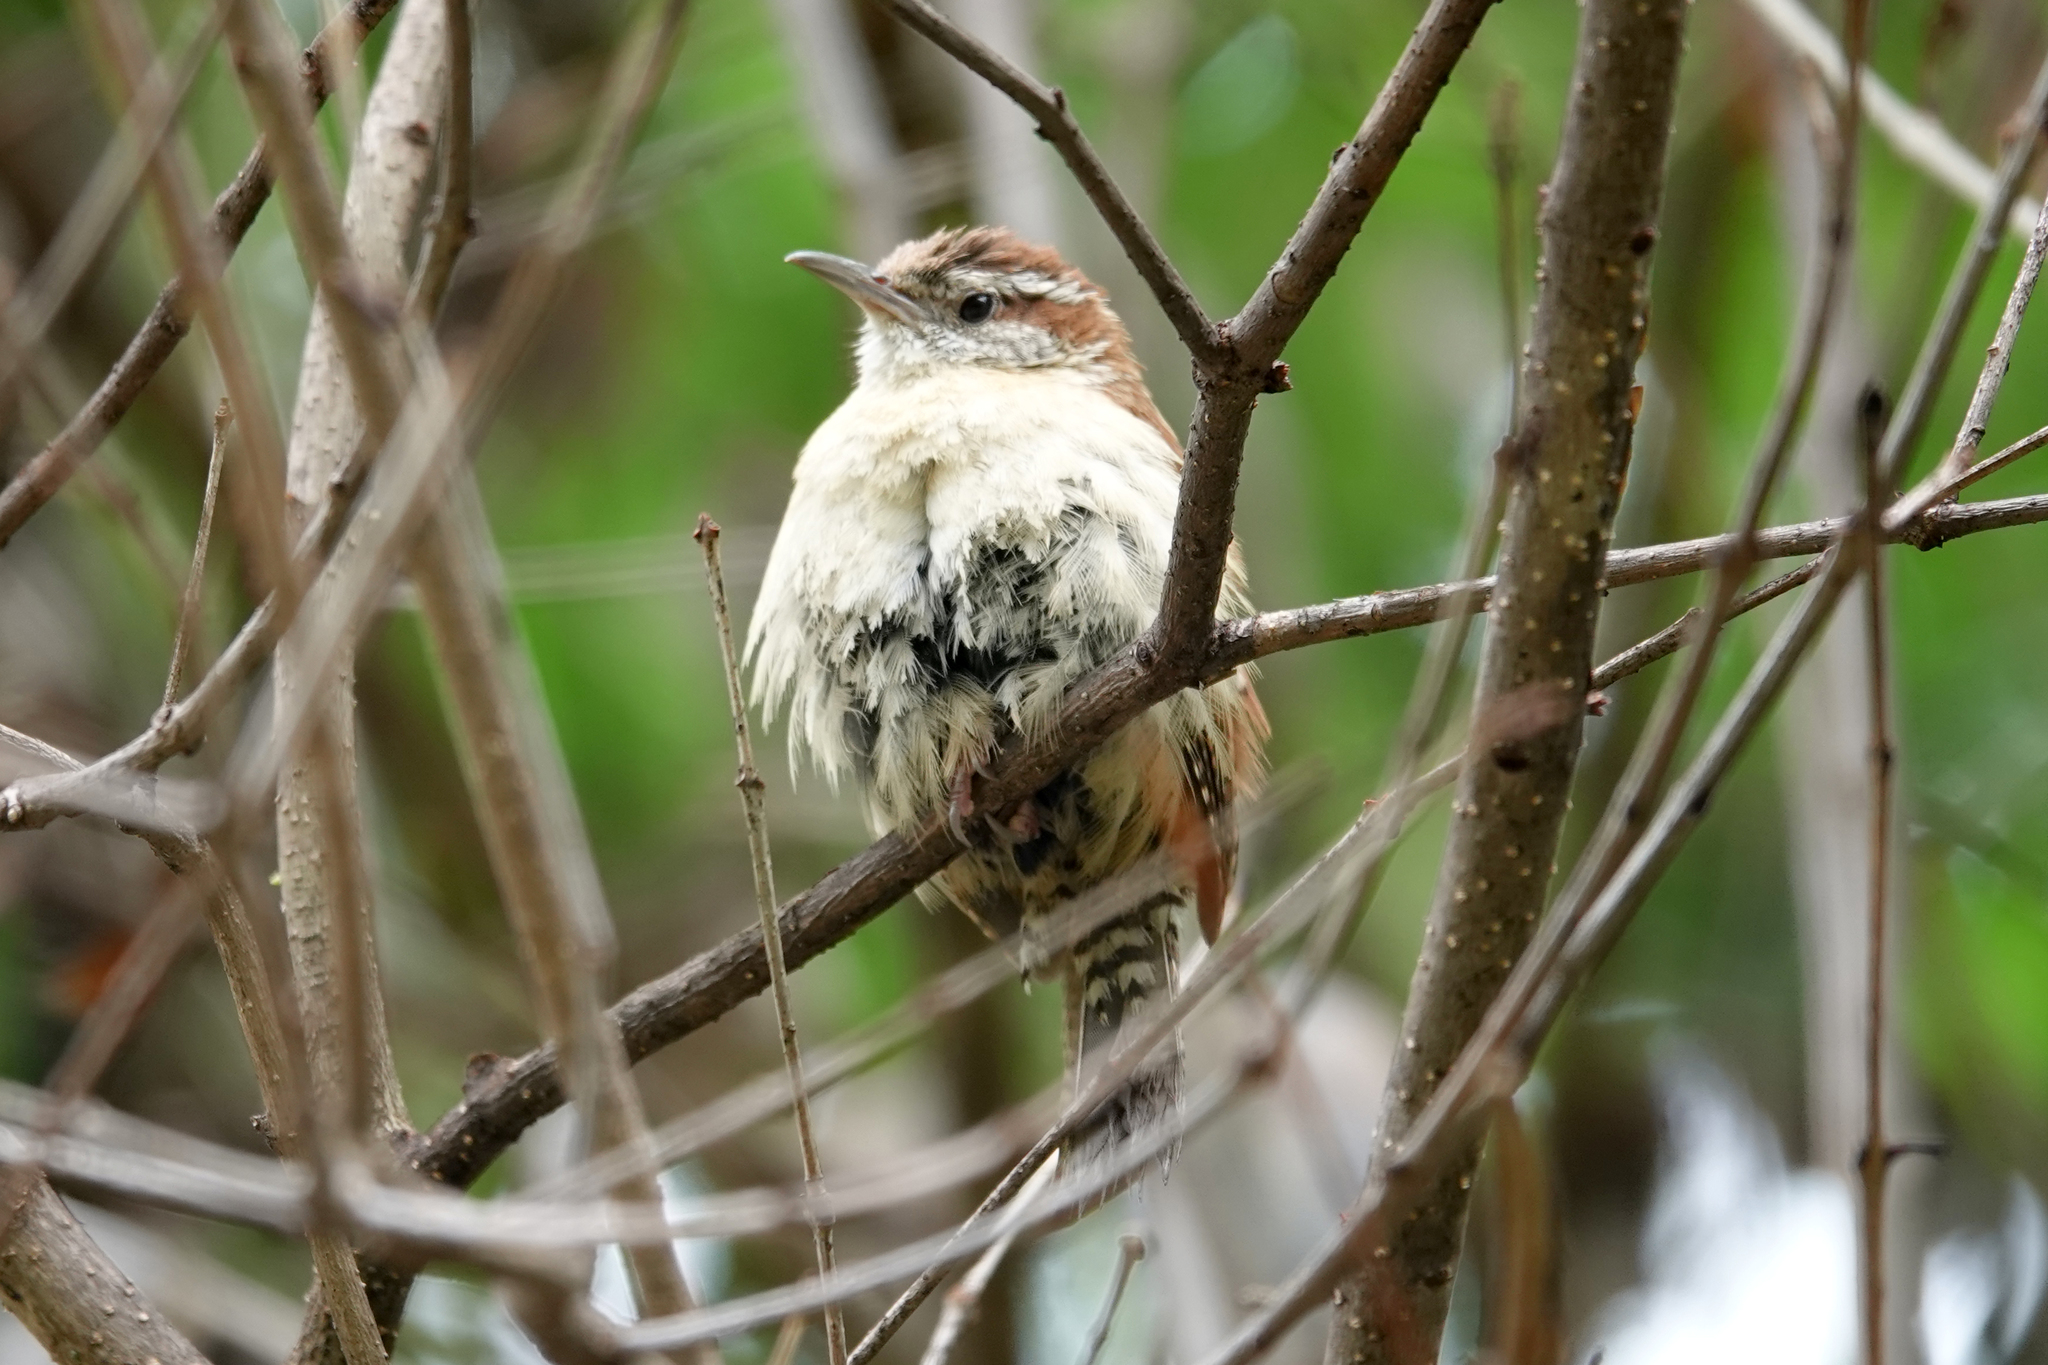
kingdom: Animalia
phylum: Chordata
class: Aves
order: Passeriformes
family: Troglodytidae
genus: Thryothorus
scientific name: Thryothorus ludovicianus
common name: Carolina wren
